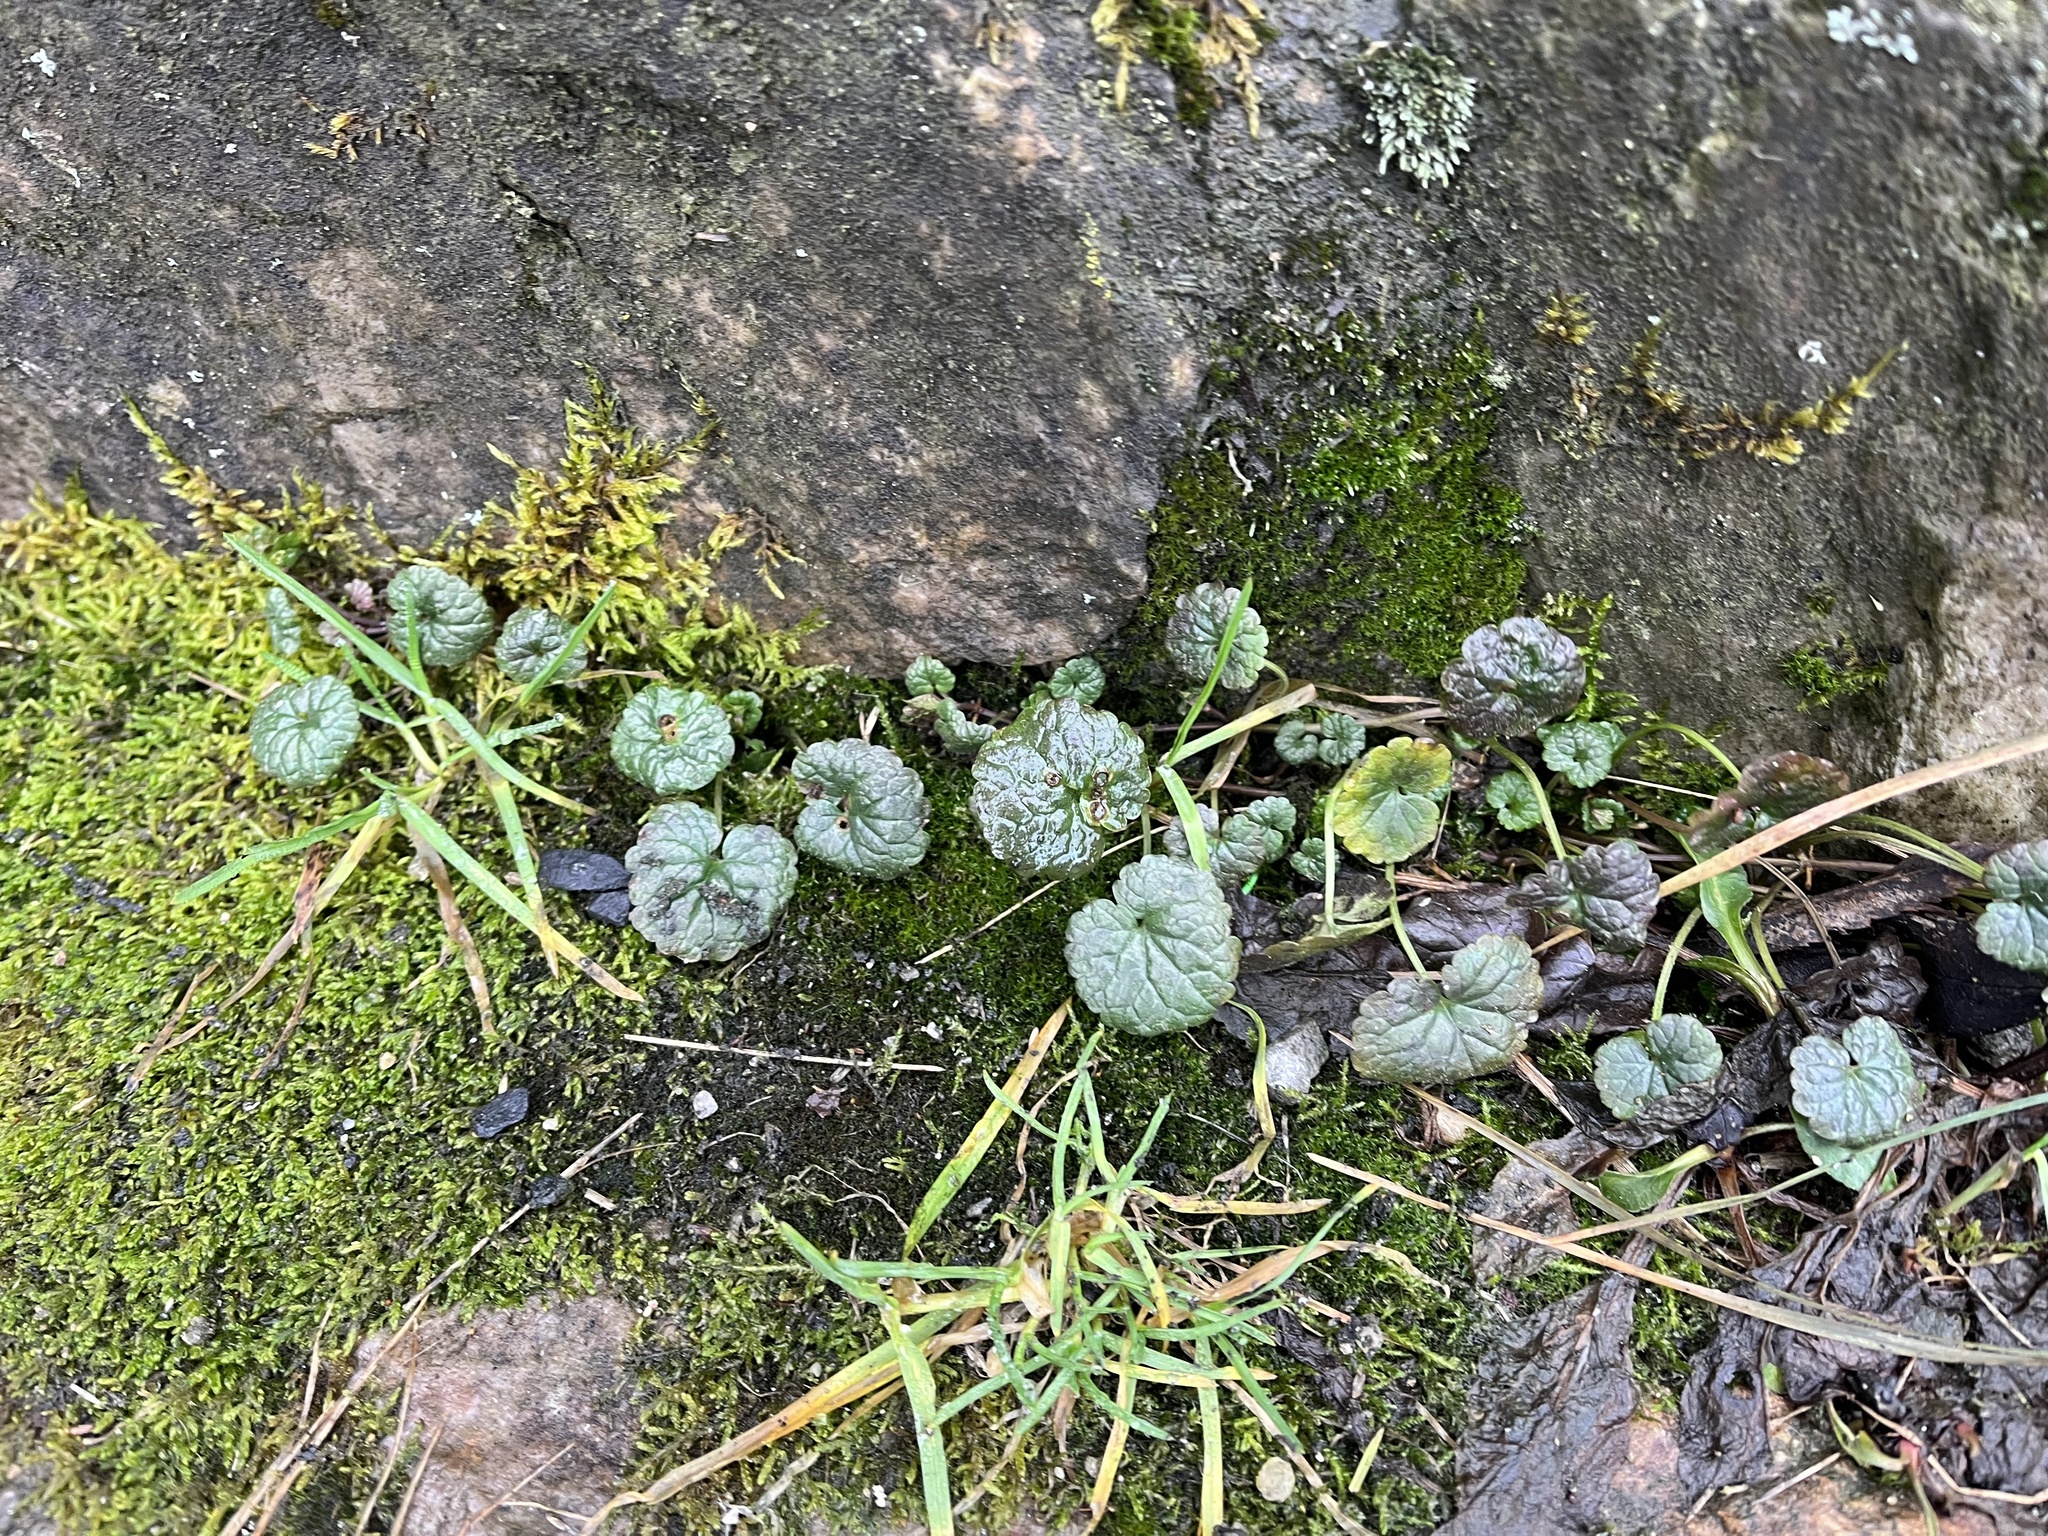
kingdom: Plantae
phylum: Tracheophyta
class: Magnoliopsida
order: Lamiales
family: Lamiaceae
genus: Glechoma
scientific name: Glechoma hederacea
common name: Ground ivy
